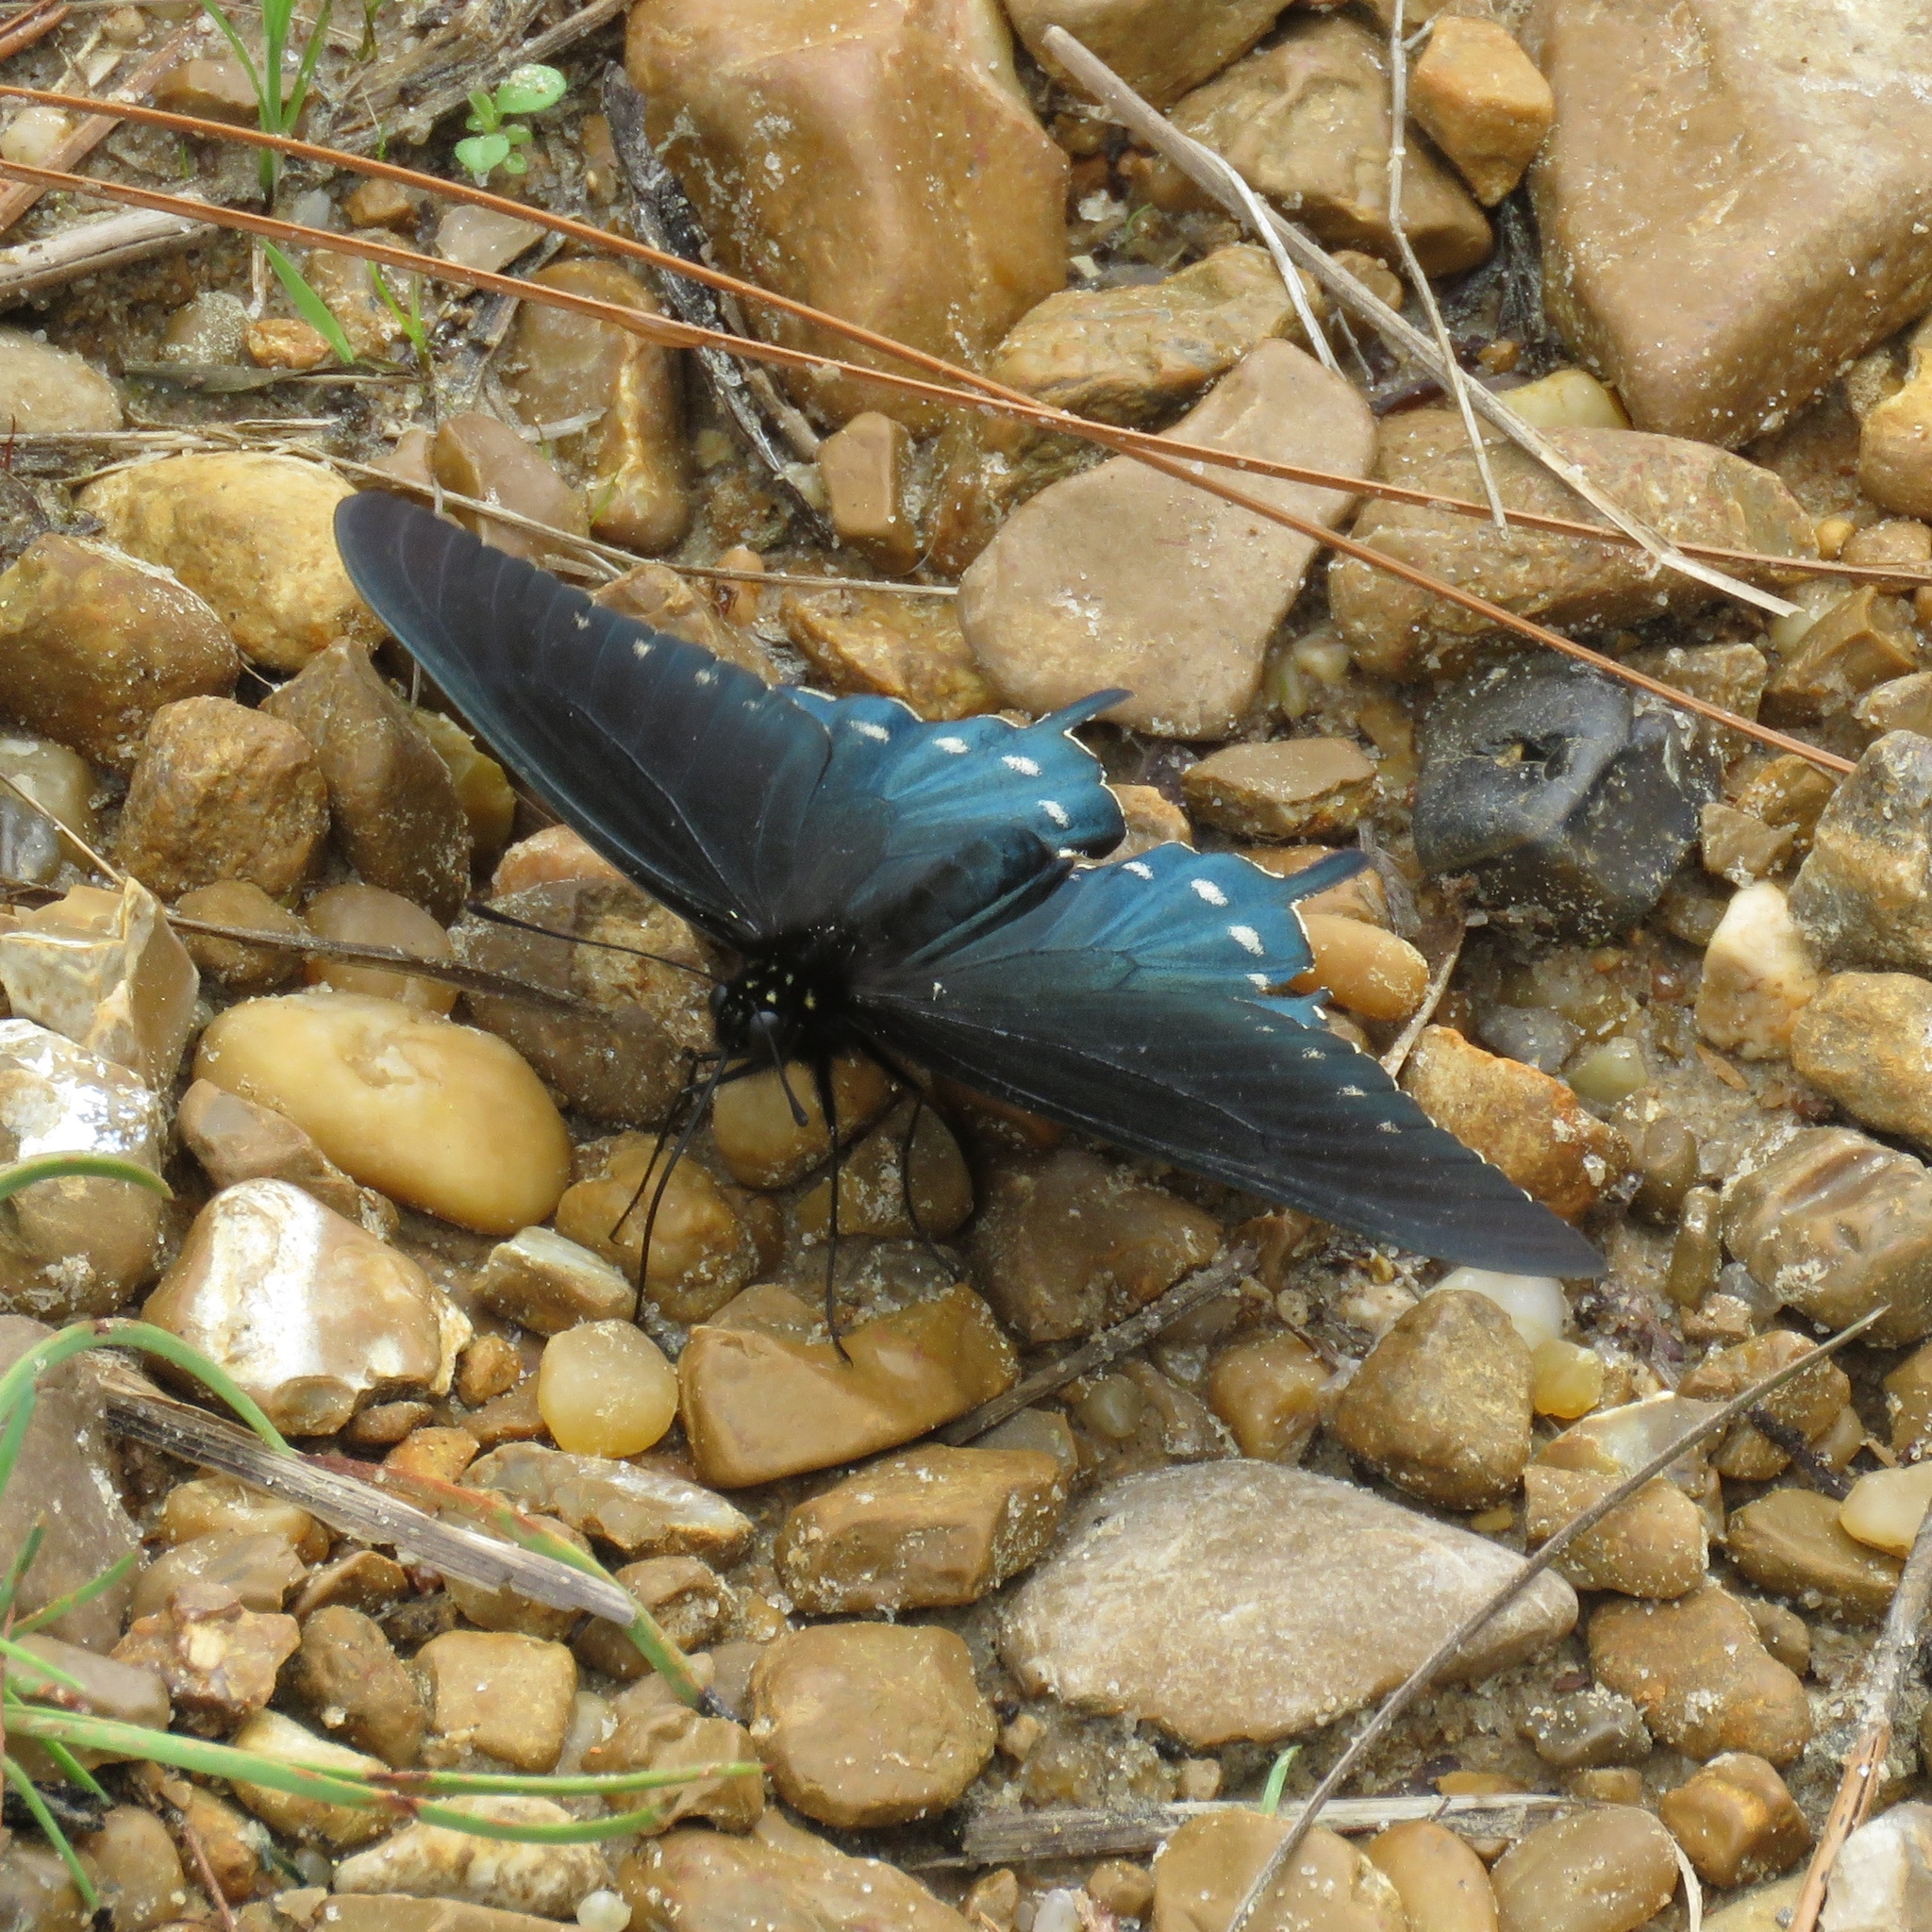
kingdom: Animalia
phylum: Arthropoda
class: Insecta
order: Lepidoptera
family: Papilionidae
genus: Battus
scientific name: Battus philenor
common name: Pipevine swallowtail
